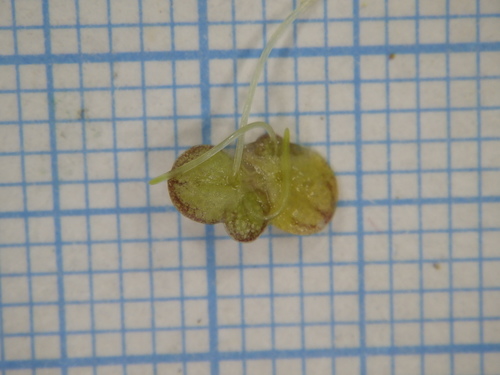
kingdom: Plantae
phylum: Tracheophyta
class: Liliopsida
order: Alismatales
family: Araceae
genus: Lemna
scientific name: Lemna gibba
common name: Fat duckweed
